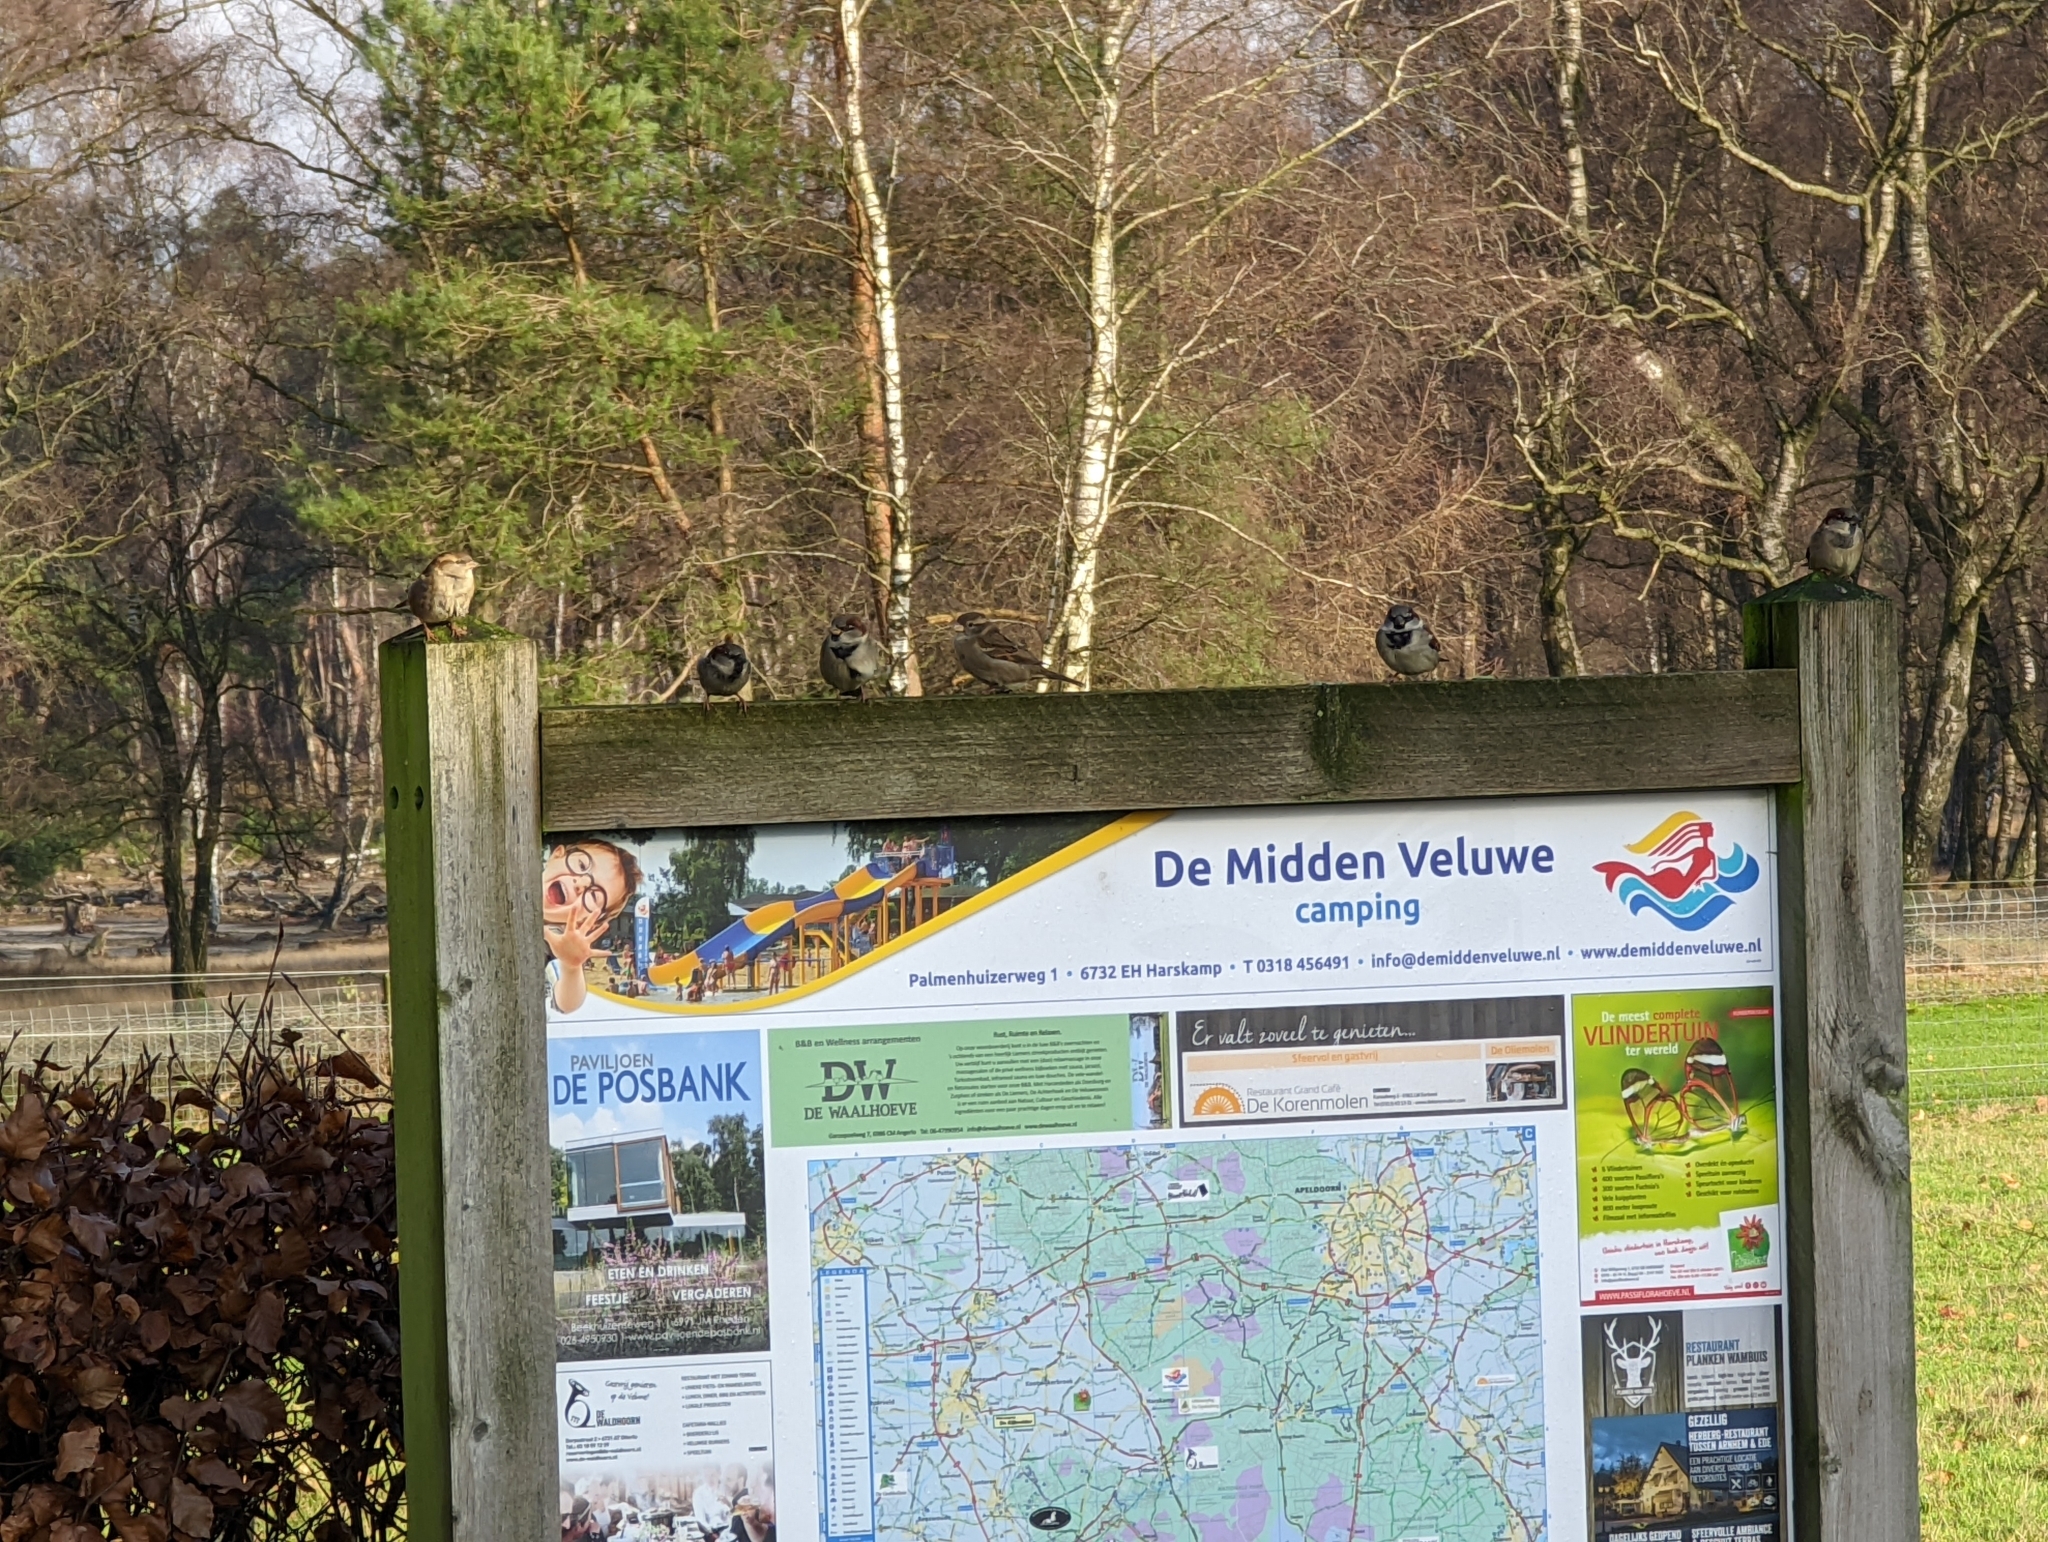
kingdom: Animalia
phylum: Chordata
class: Aves
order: Passeriformes
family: Passeridae
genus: Passer
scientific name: Passer domesticus
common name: House sparrow
